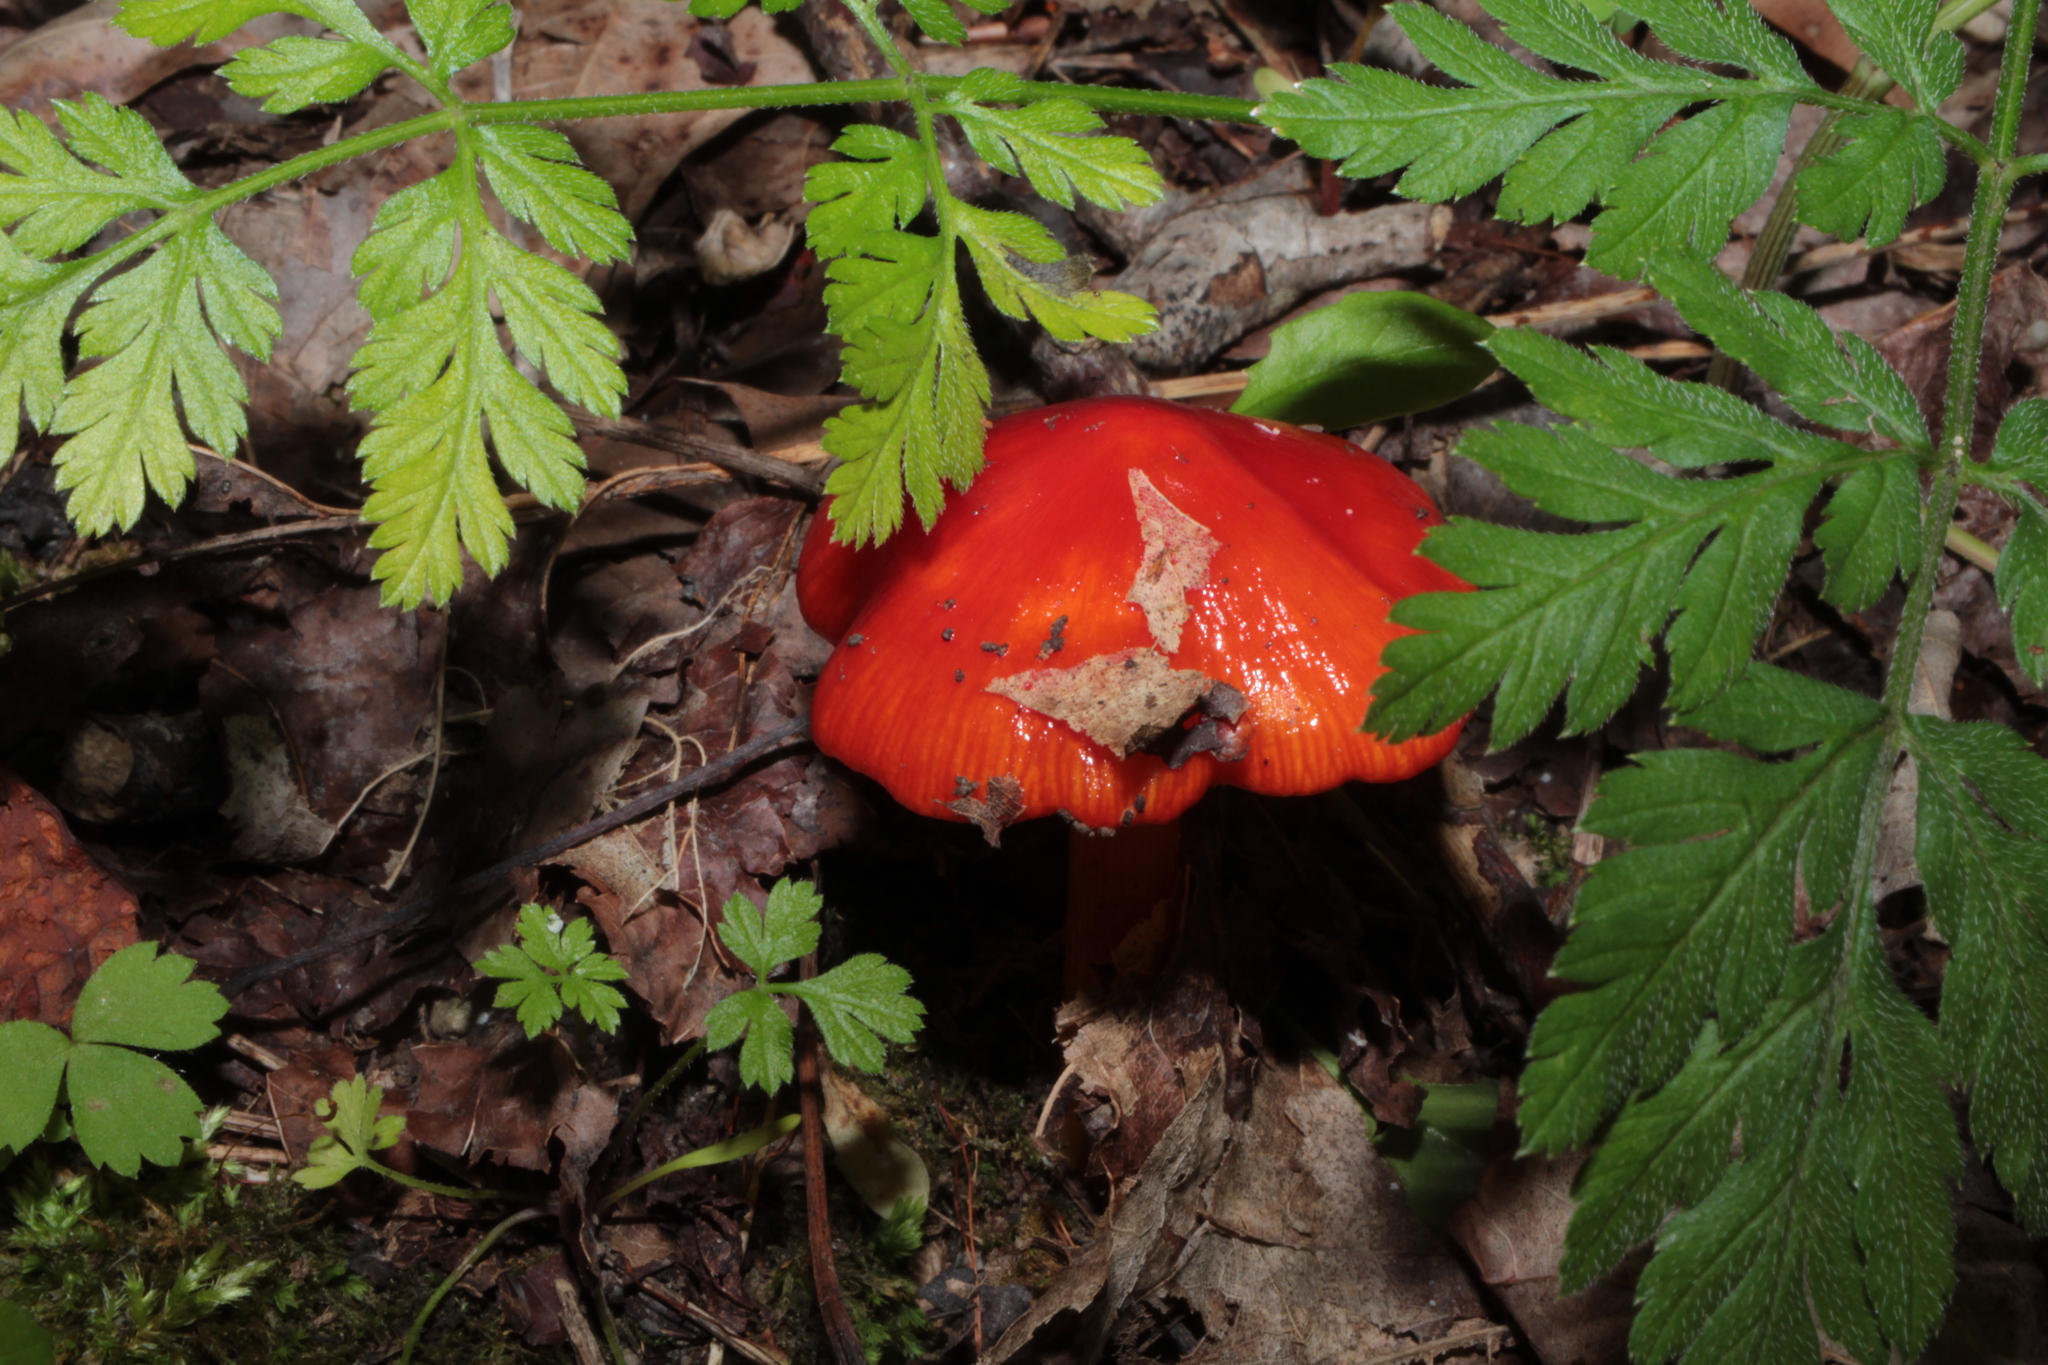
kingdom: Fungi
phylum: Basidiomycota
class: Agaricomycetes
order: Agaricales
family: Hygrophoraceae
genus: Hygrocybe
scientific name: Hygrocybe acutoconica
